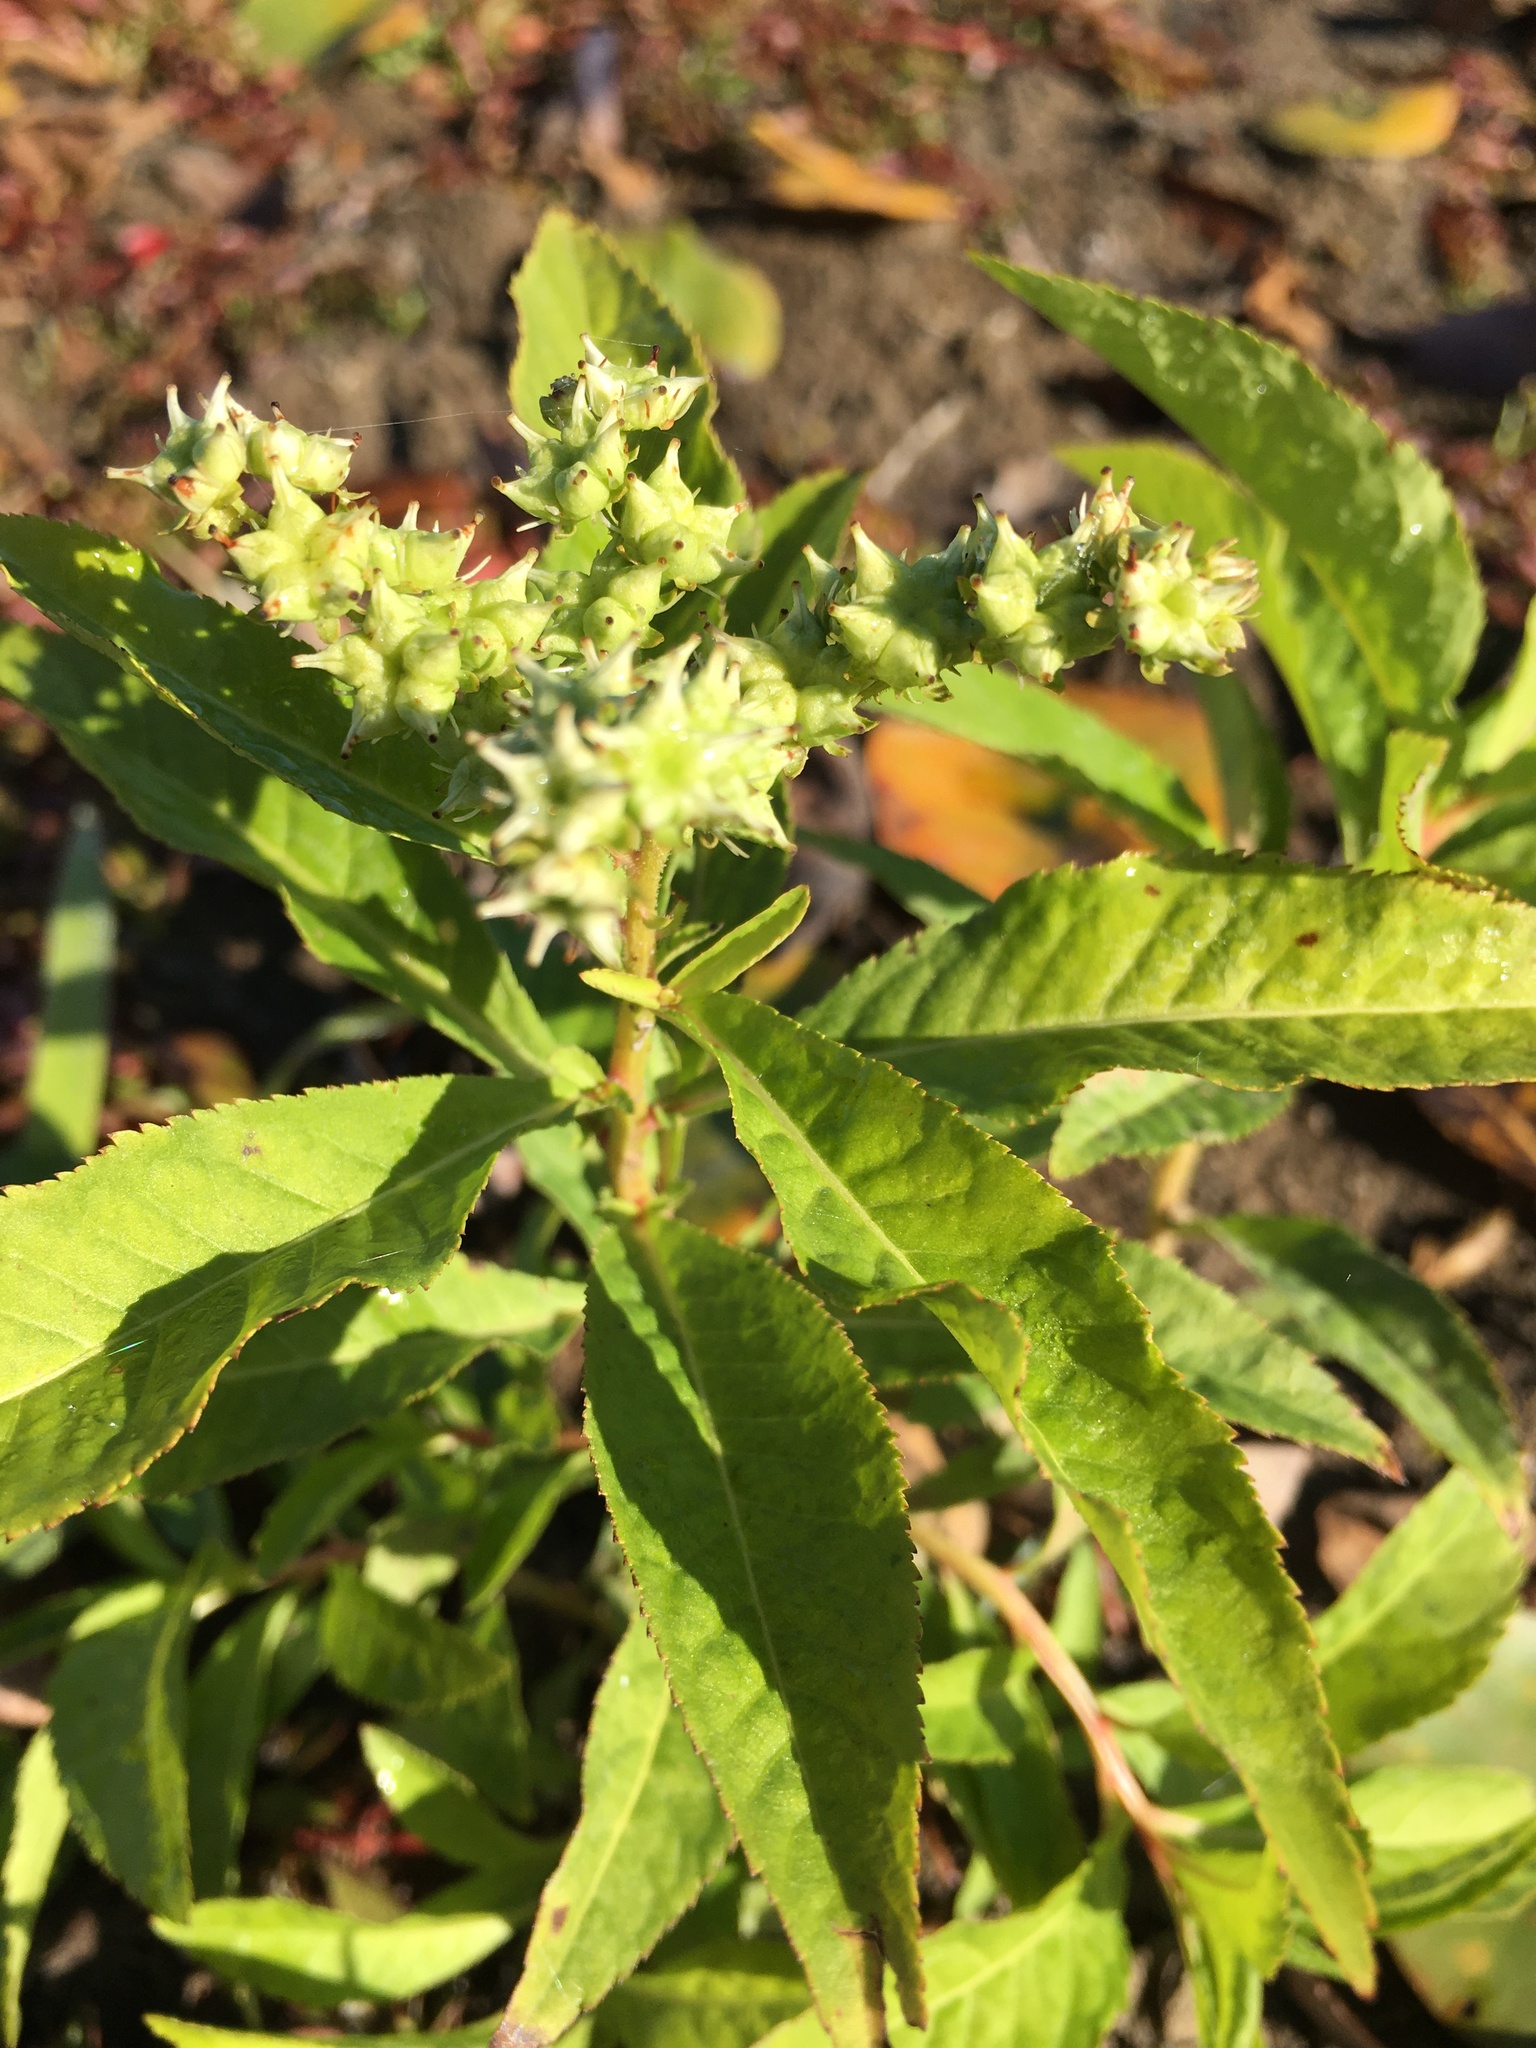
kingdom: Plantae
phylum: Tracheophyta
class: Magnoliopsida
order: Saxifragales
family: Penthoraceae
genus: Penthorum
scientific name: Penthorum sedoides
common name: Ditch stonecrop
